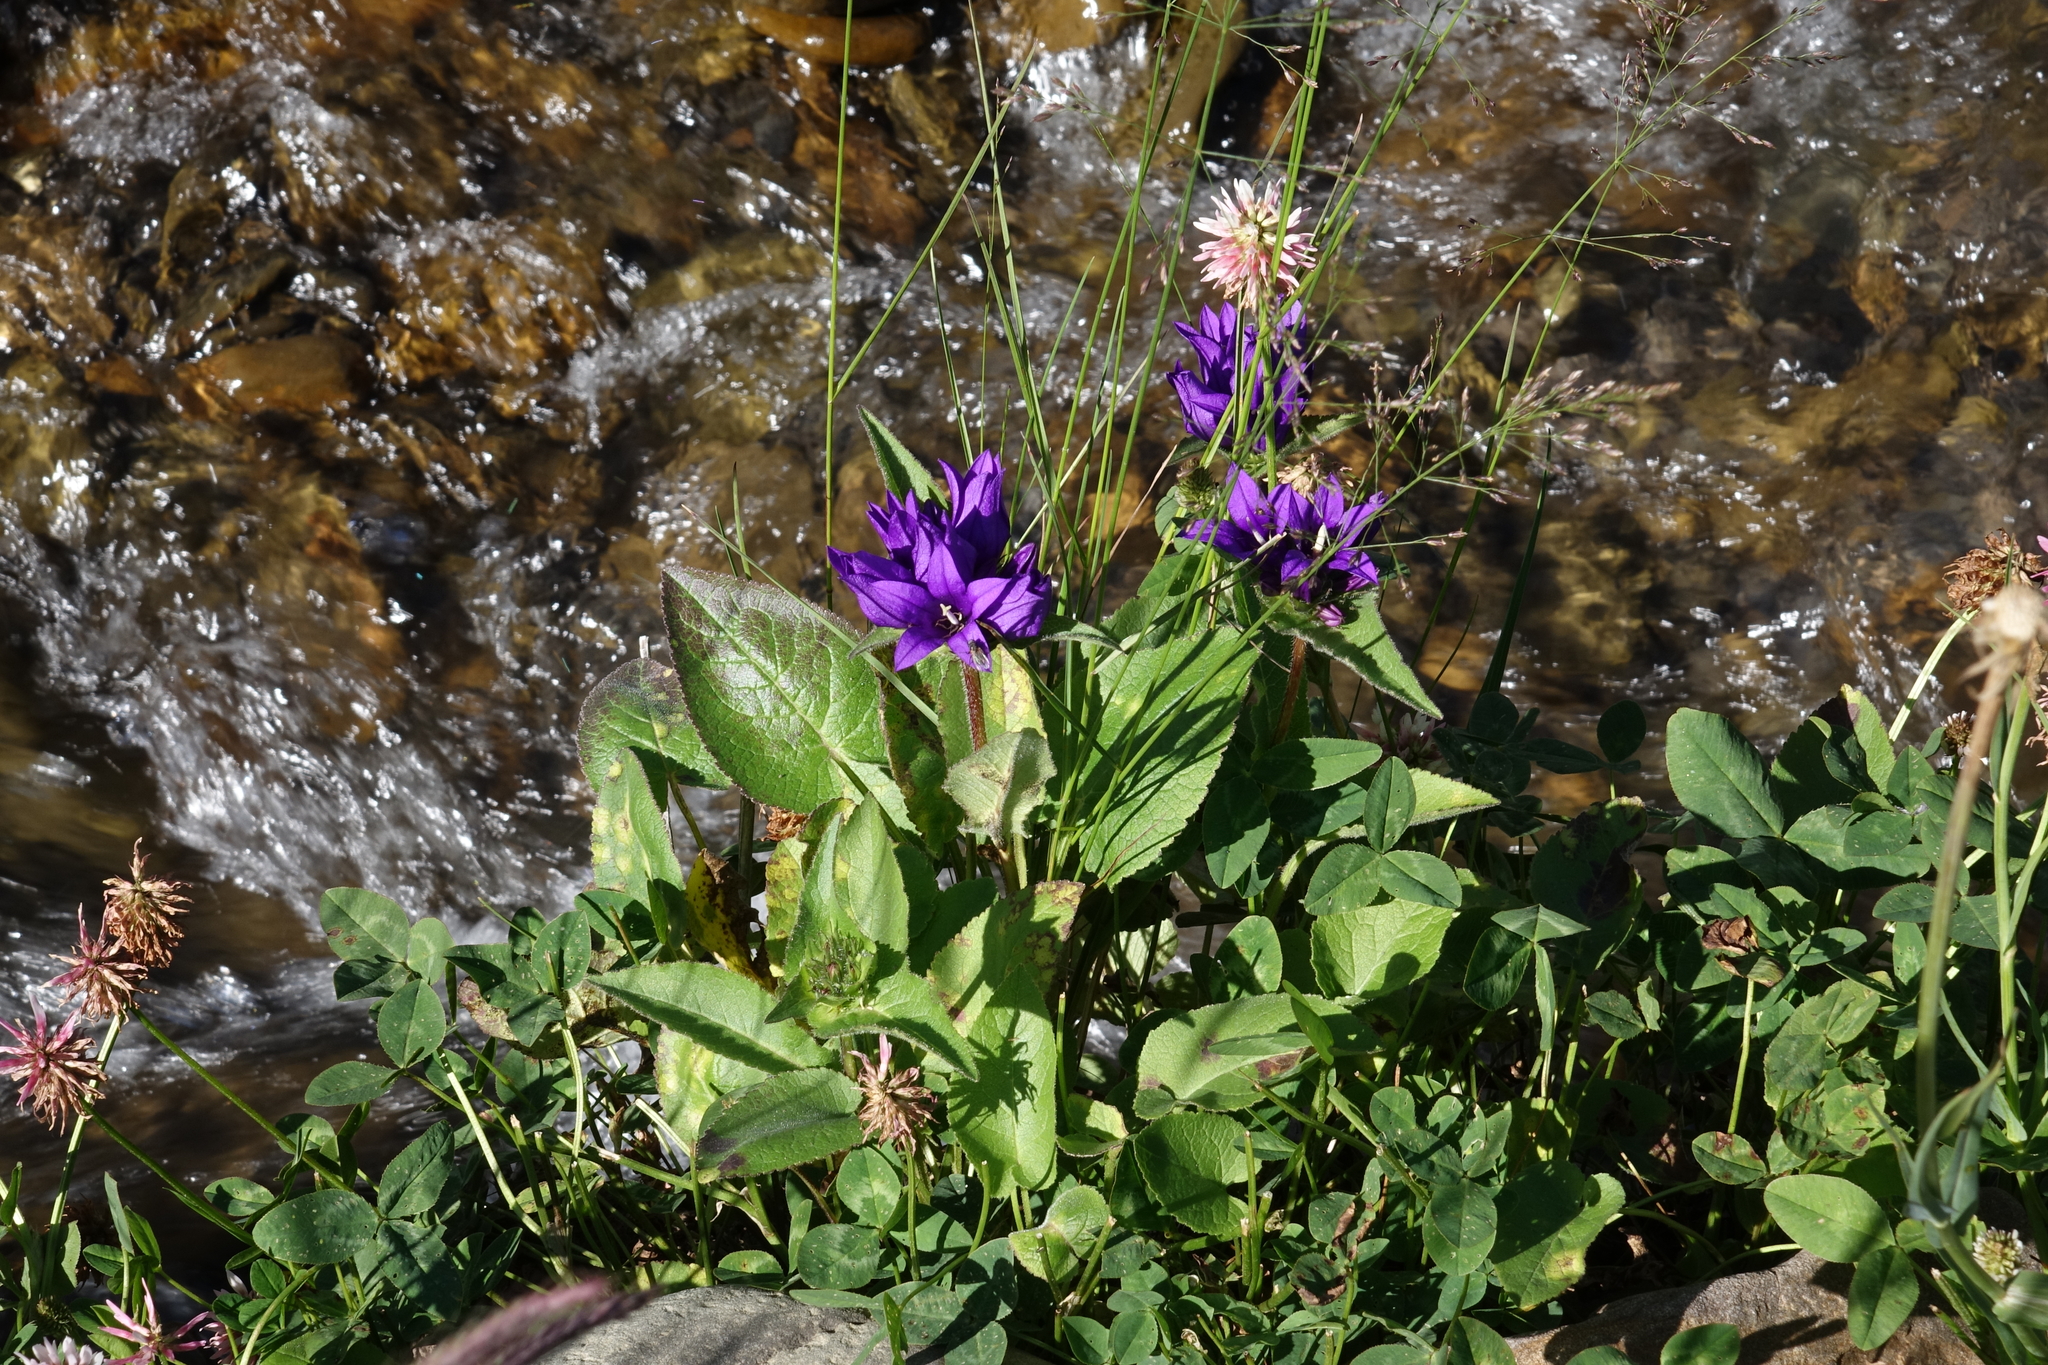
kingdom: Plantae
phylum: Tracheophyta
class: Magnoliopsida
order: Asterales
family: Campanulaceae
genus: Campanula
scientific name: Campanula glomerata
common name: Clustered bellflower
